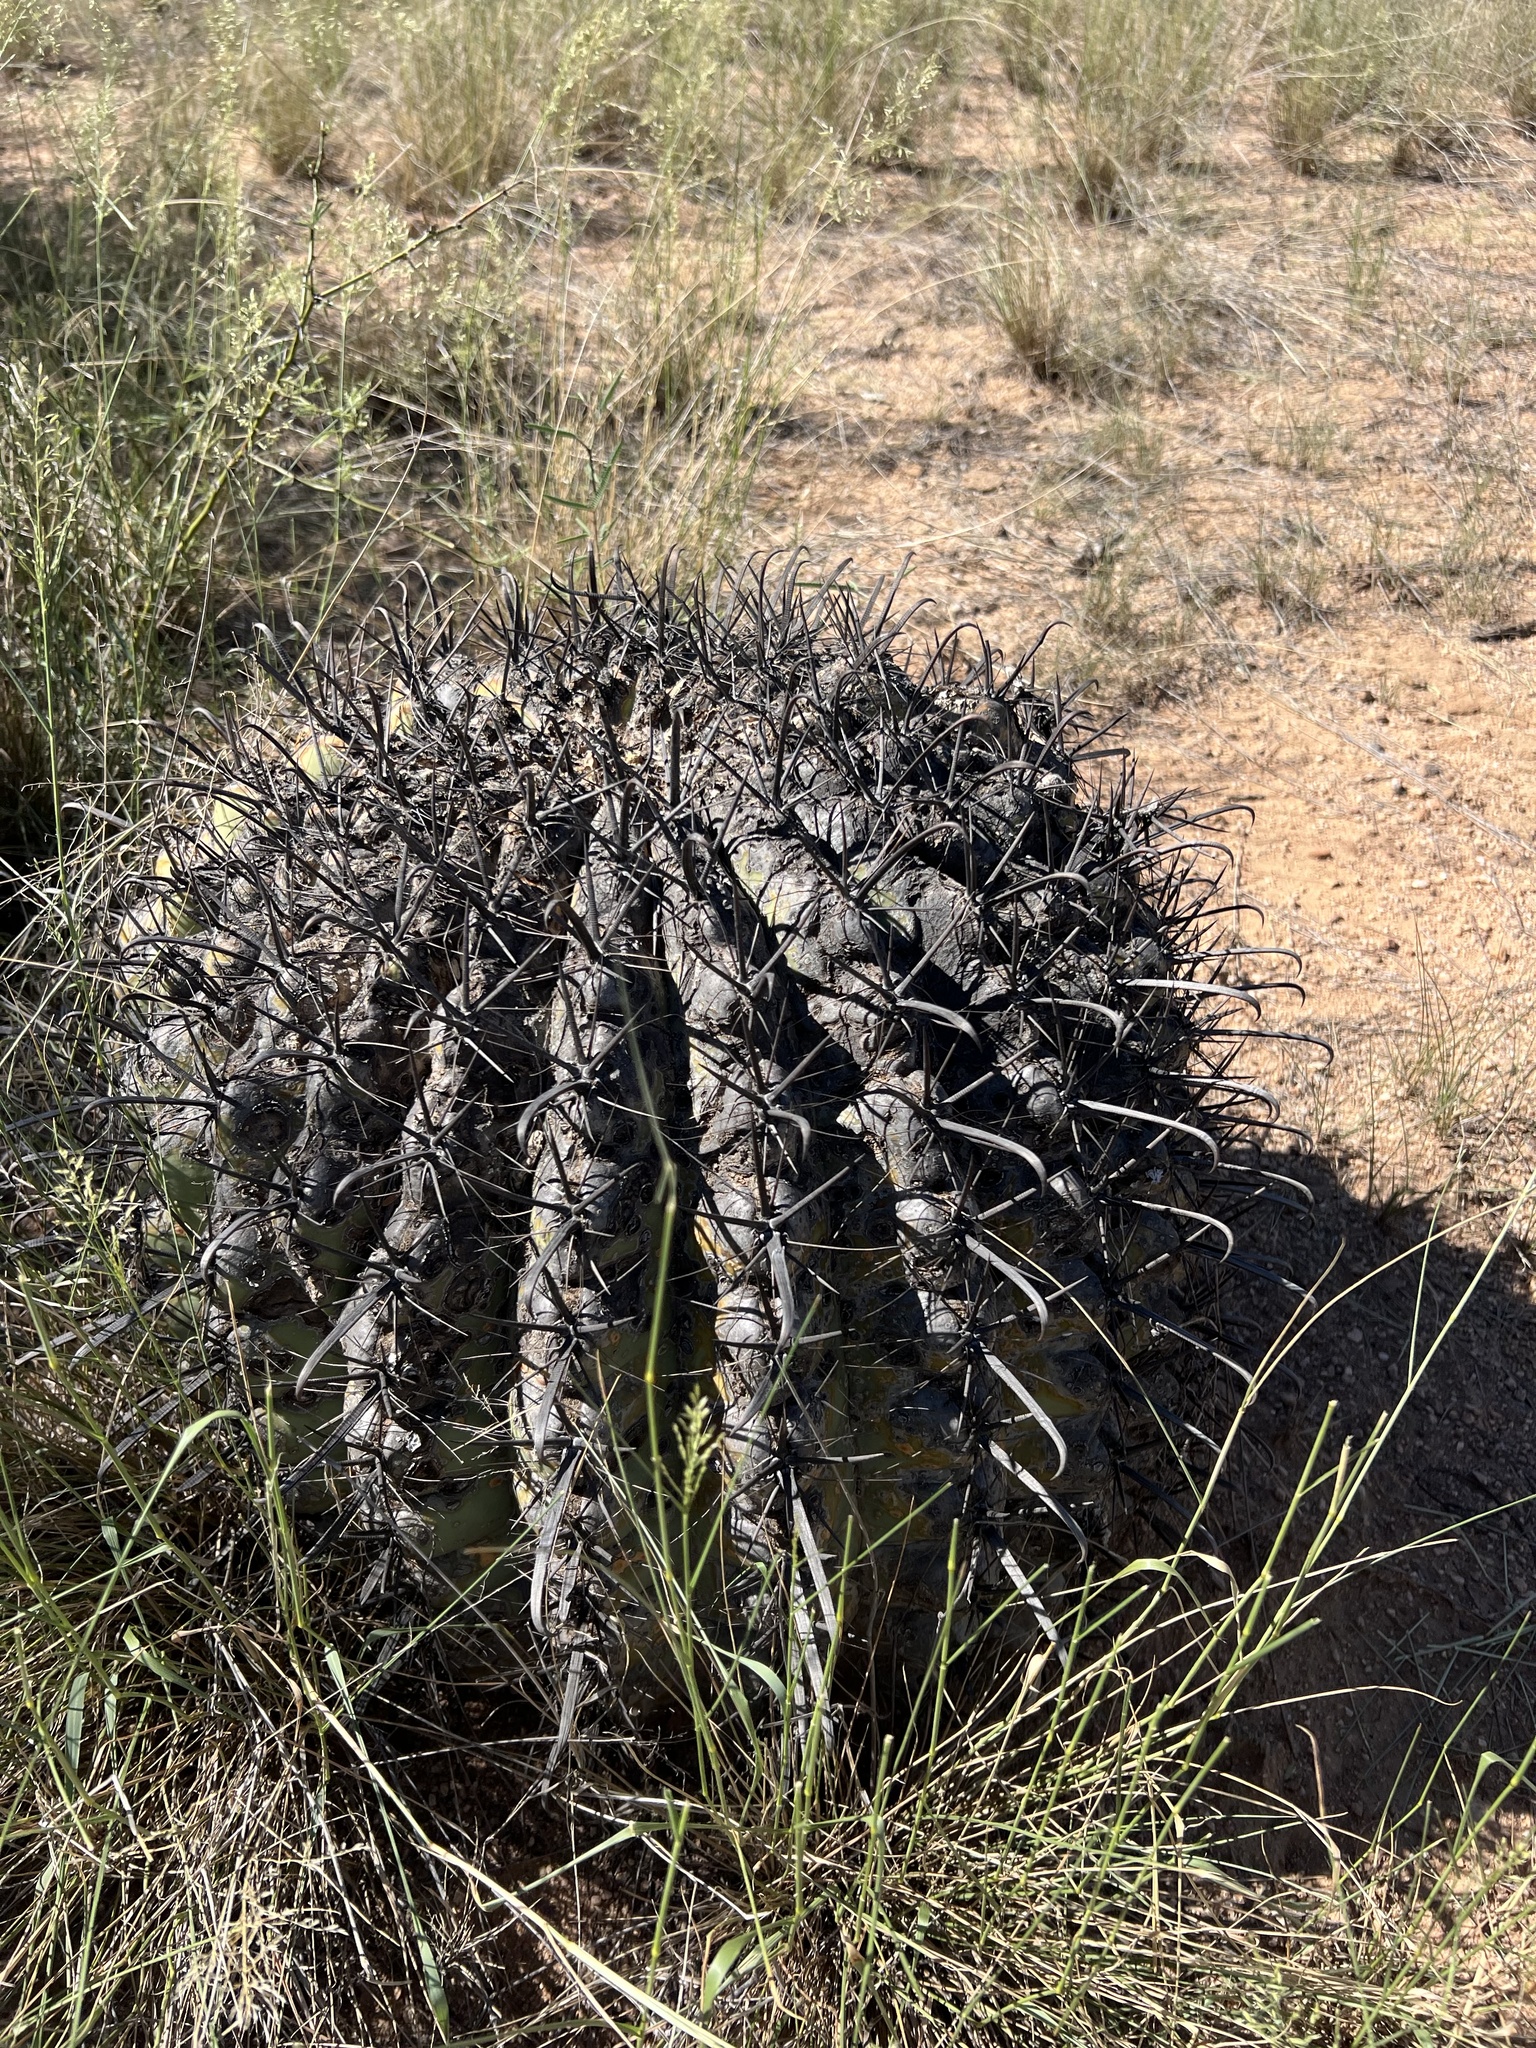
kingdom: Plantae
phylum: Tracheophyta
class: Magnoliopsida
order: Caryophyllales
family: Cactaceae
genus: Ferocactus
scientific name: Ferocactus wislizeni
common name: Candy barrel cactus
